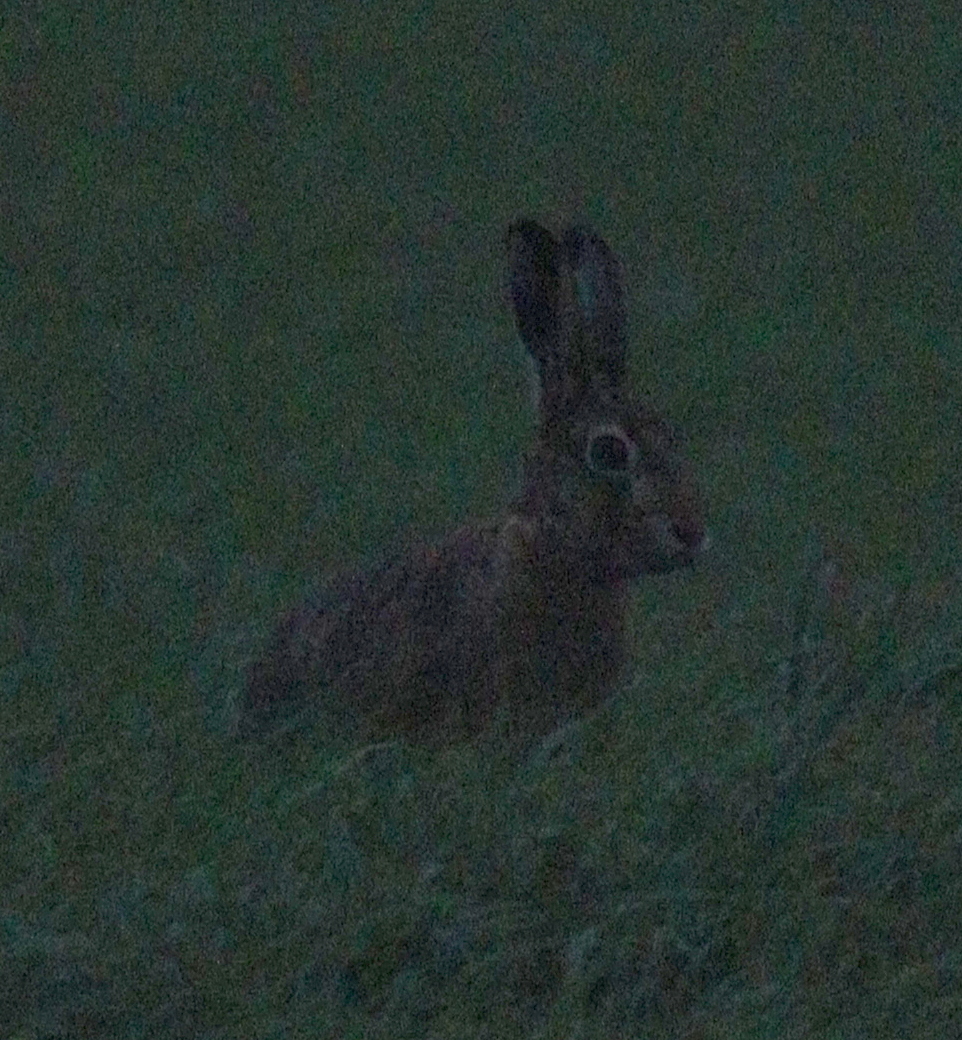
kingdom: Animalia
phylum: Chordata
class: Mammalia
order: Lagomorpha
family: Leporidae
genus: Lepus
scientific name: Lepus europaeus
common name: European hare
